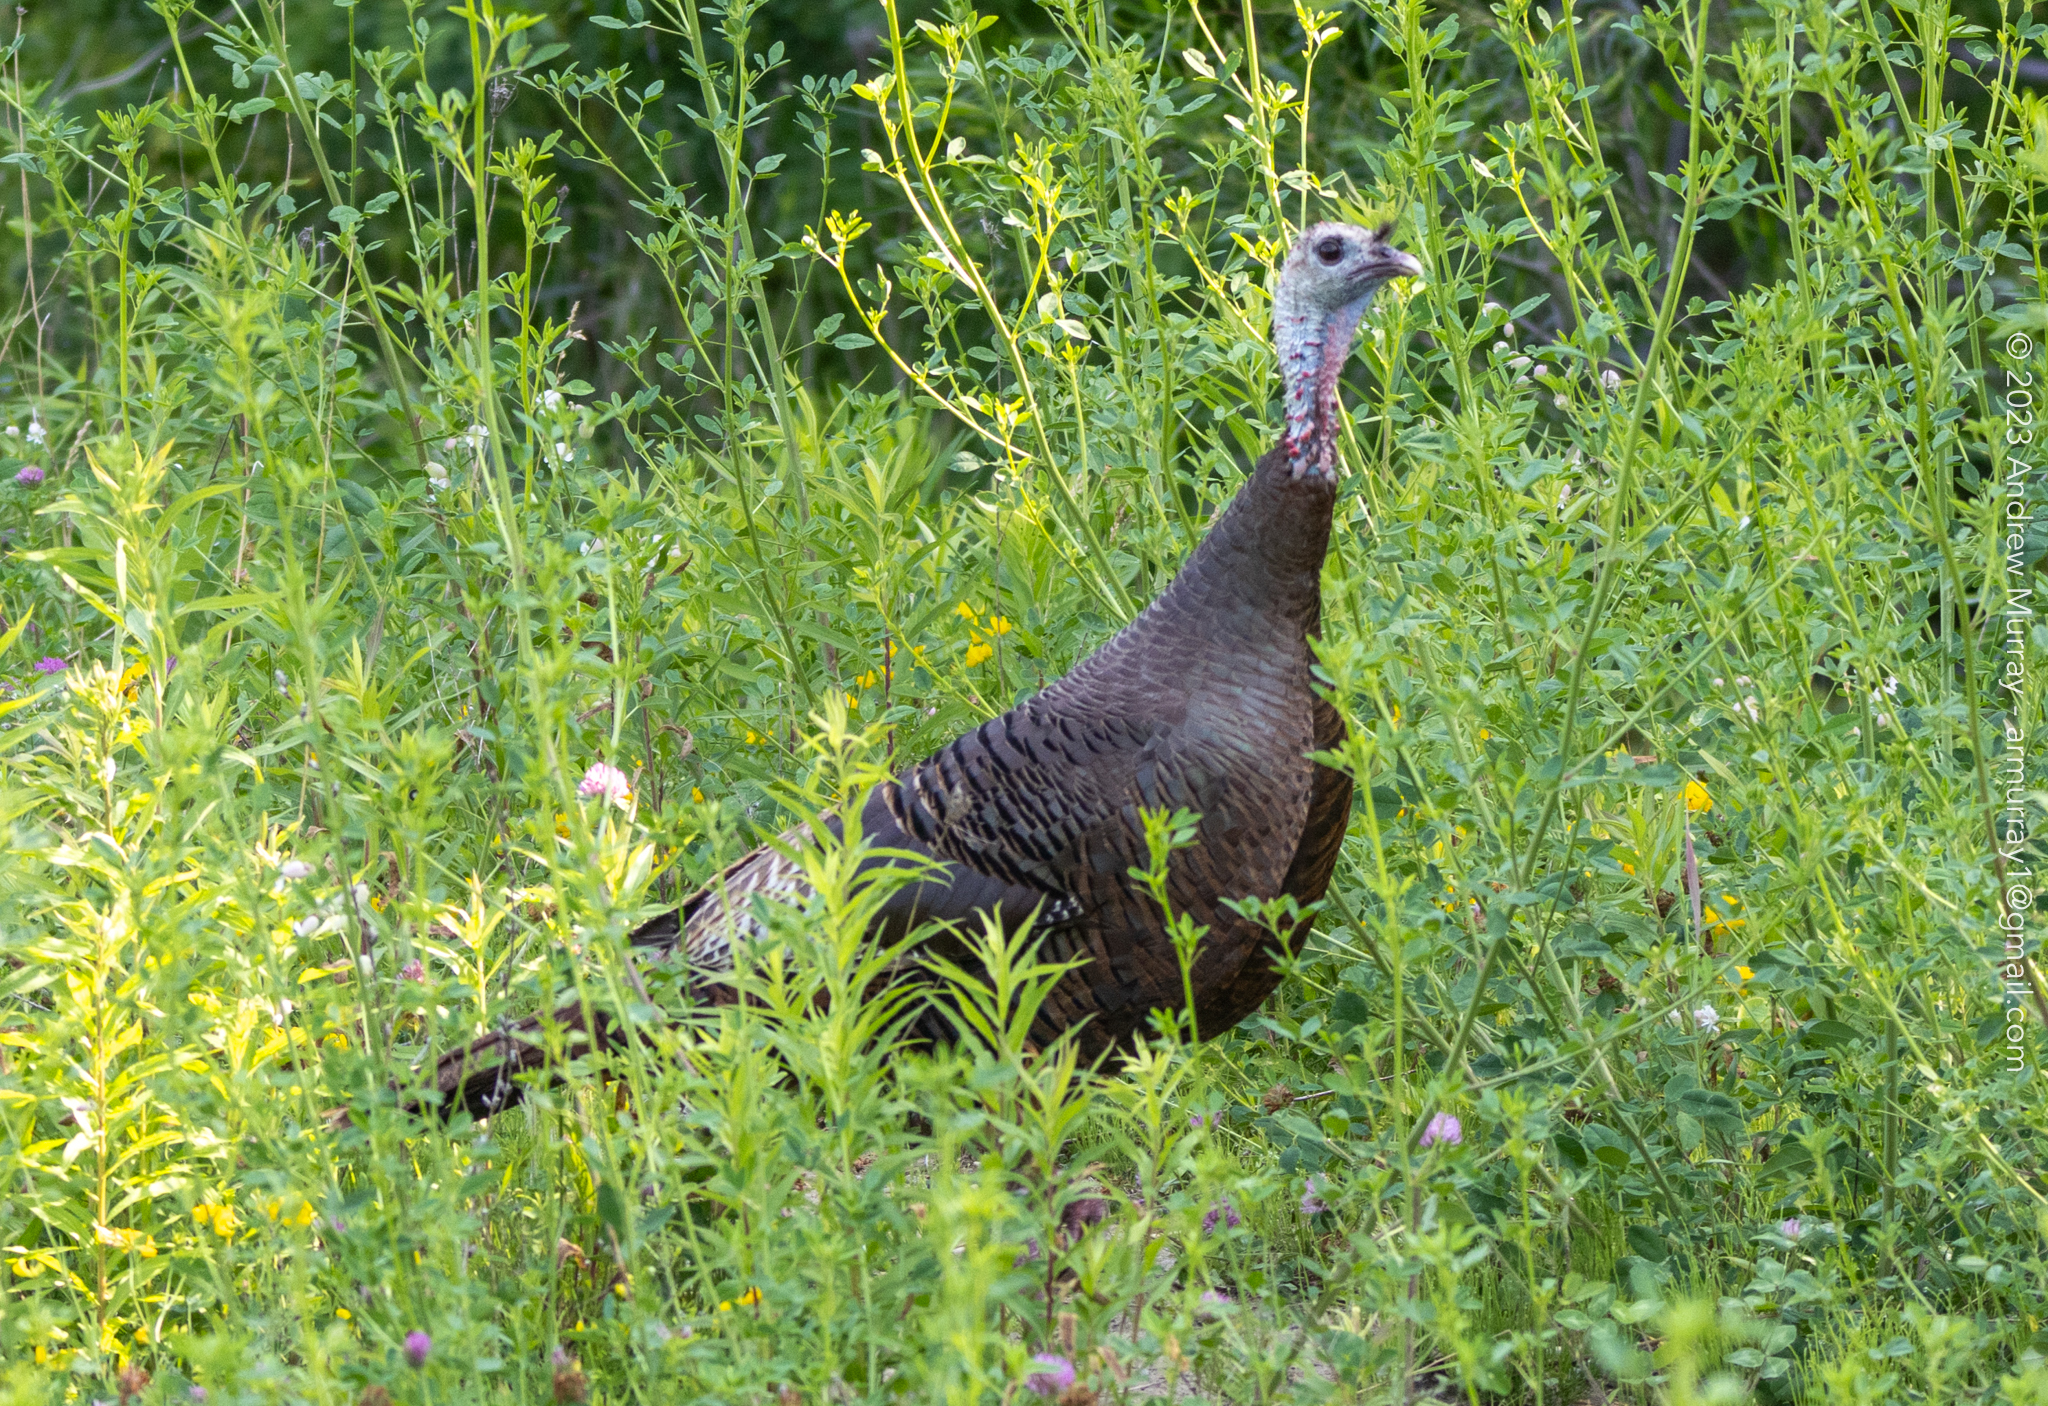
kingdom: Animalia
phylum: Chordata
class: Aves
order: Galliformes
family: Phasianidae
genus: Meleagris
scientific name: Meleagris gallopavo
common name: Wild turkey
